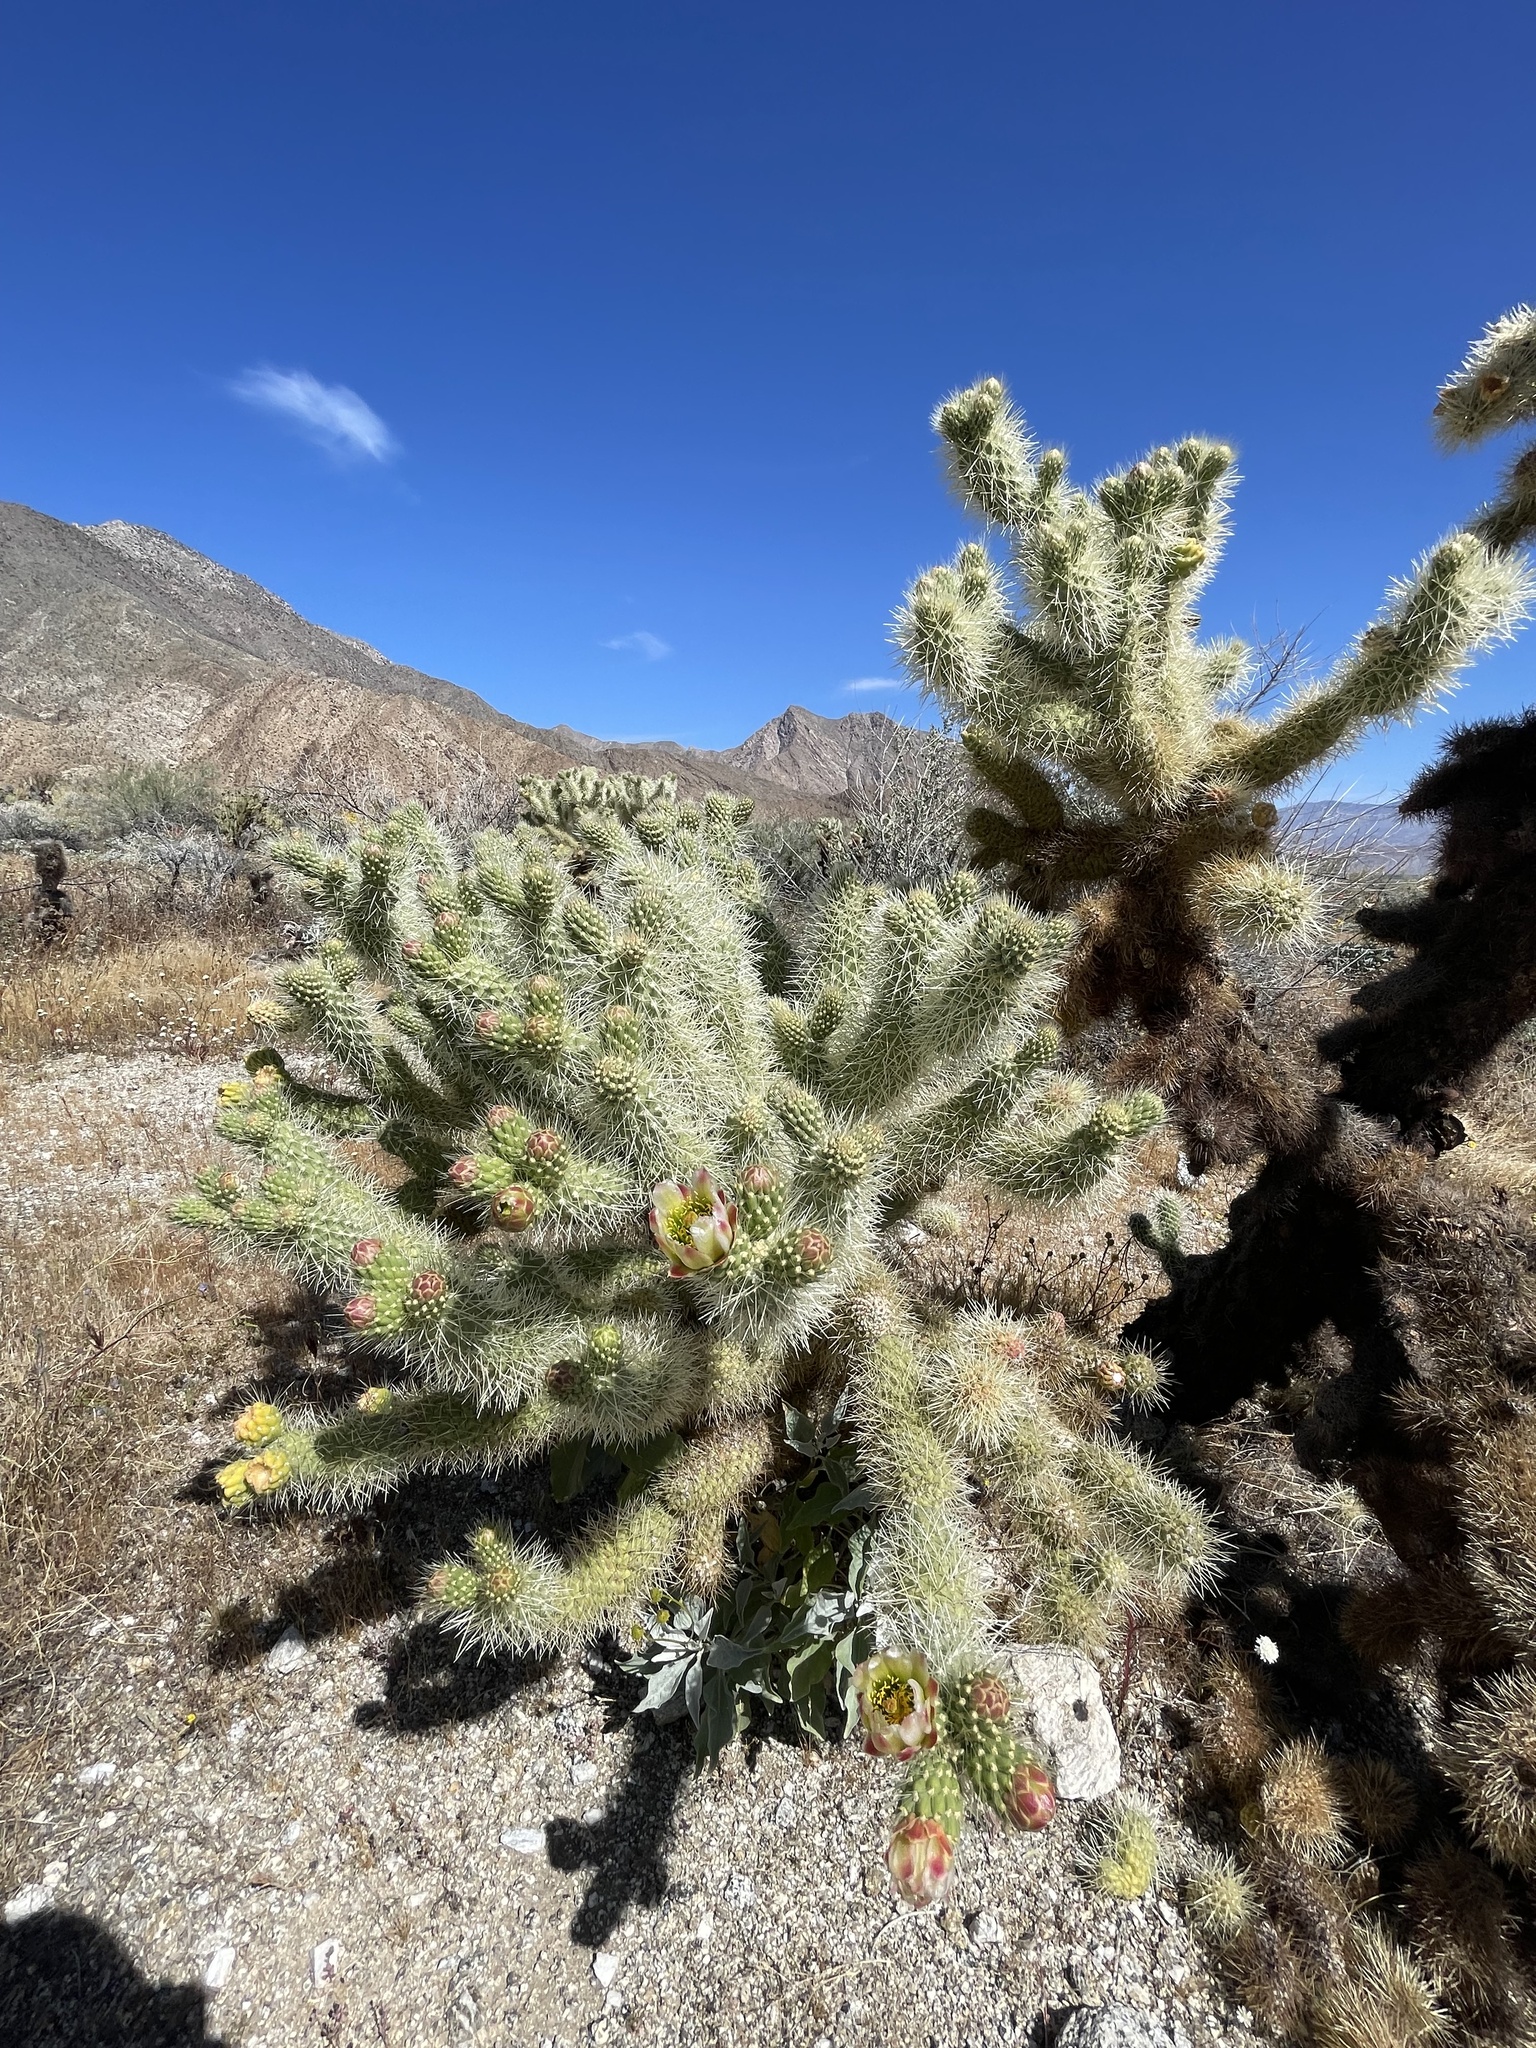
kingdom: Plantae
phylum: Tracheophyta
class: Magnoliopsida
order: Caryophyllales
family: Cactaceae
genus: Cylindropuntia
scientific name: Cylindropuntia fosbergii
